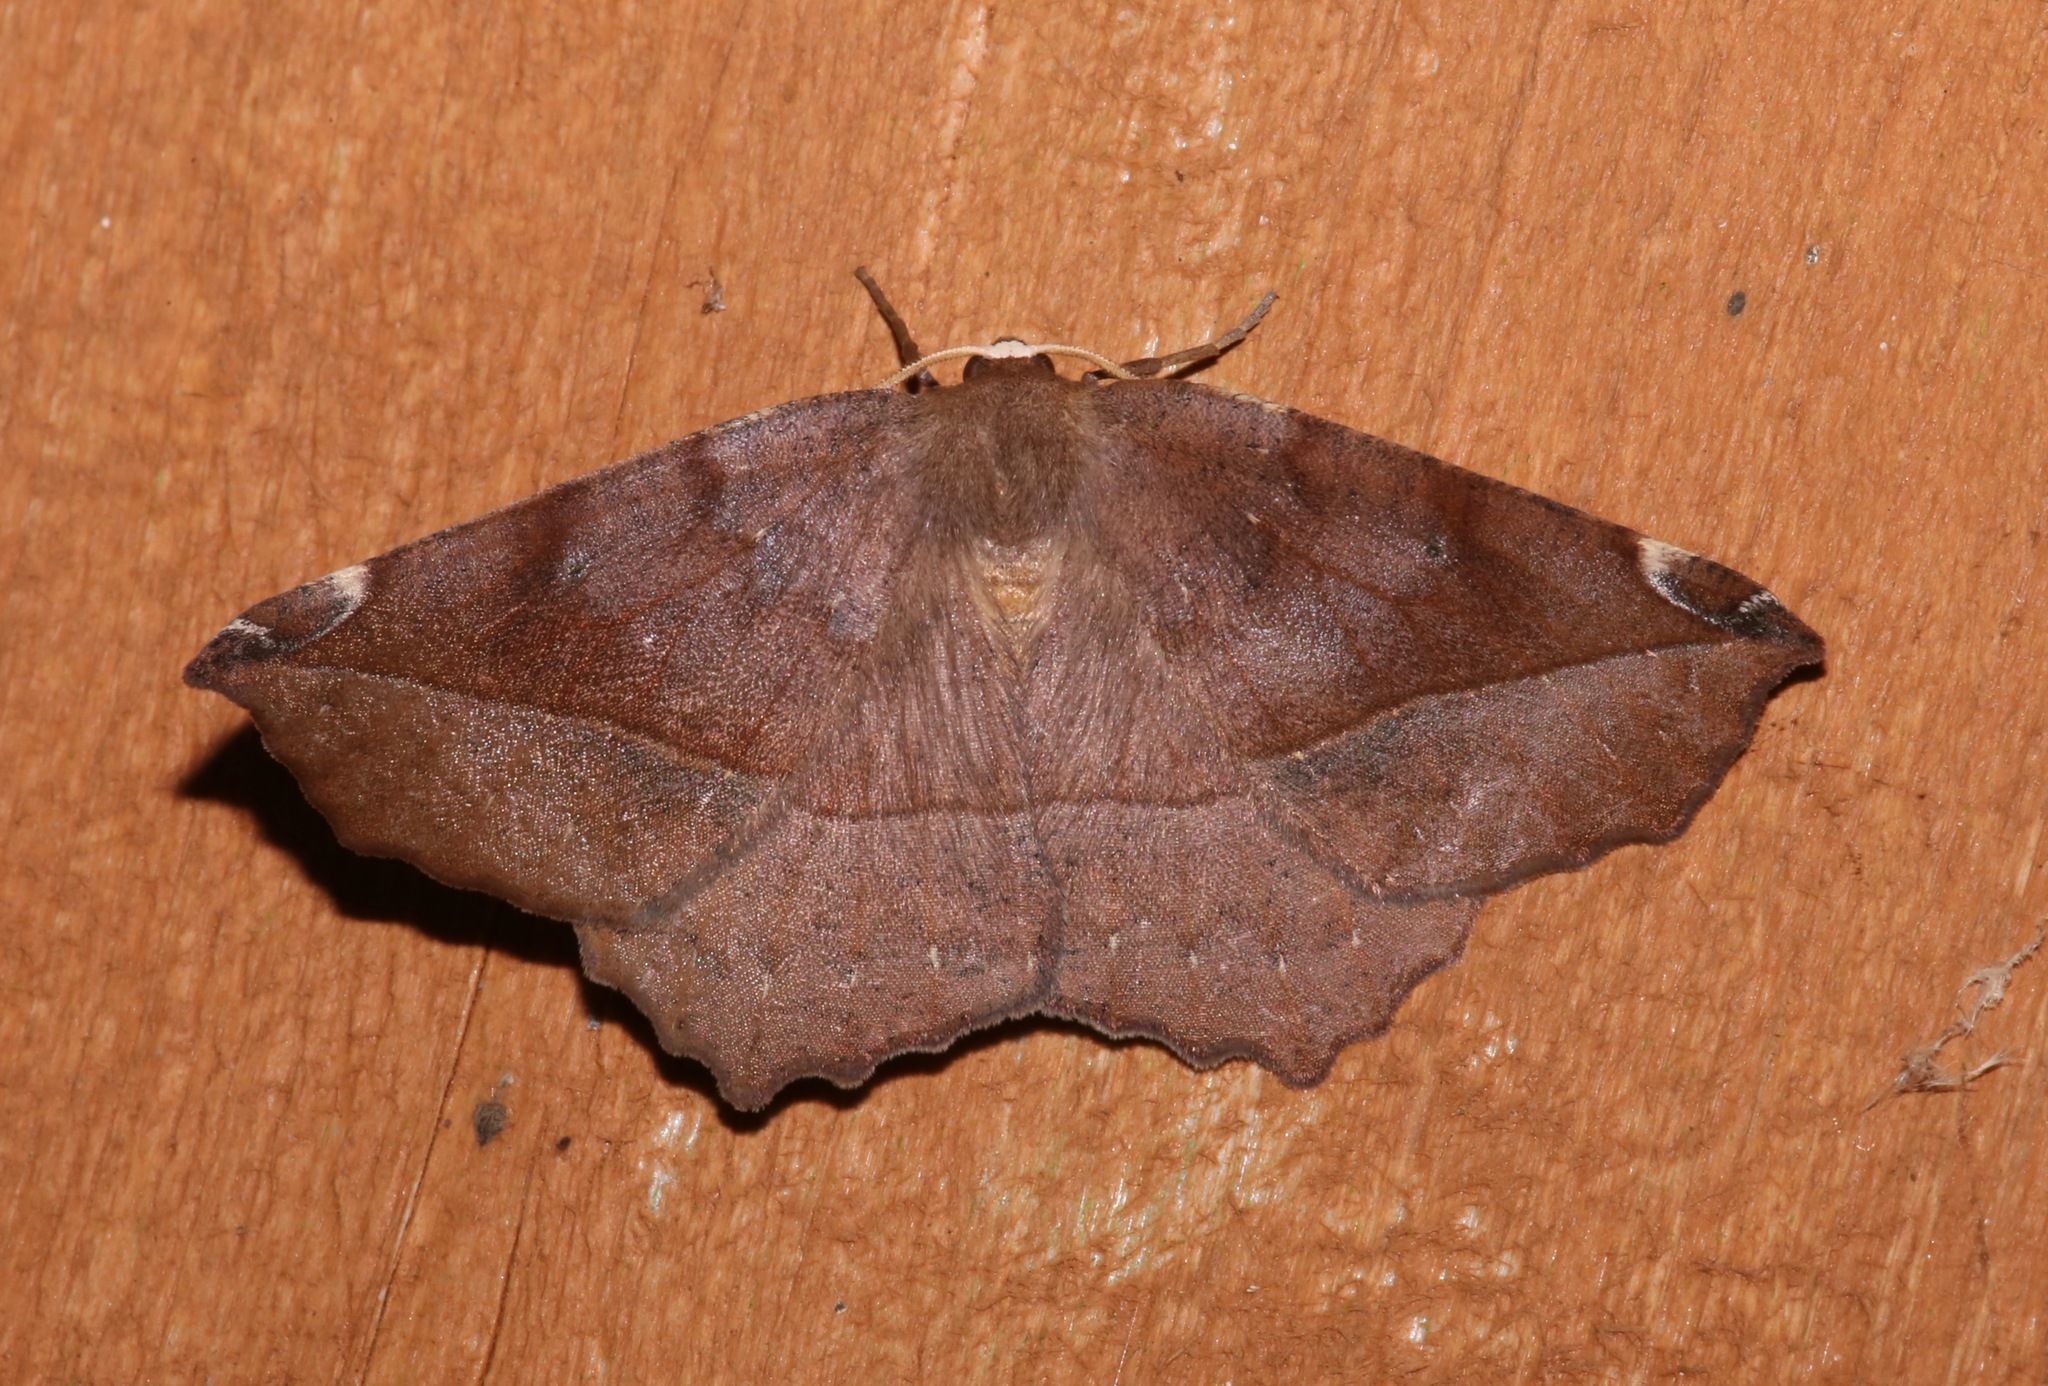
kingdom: Animalia
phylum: Arthropoda
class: Insecta
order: Lepidoptera
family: Geometridae
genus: Eutrapela
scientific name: Eutrapela clemataria
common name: Curved-toothed geometer
